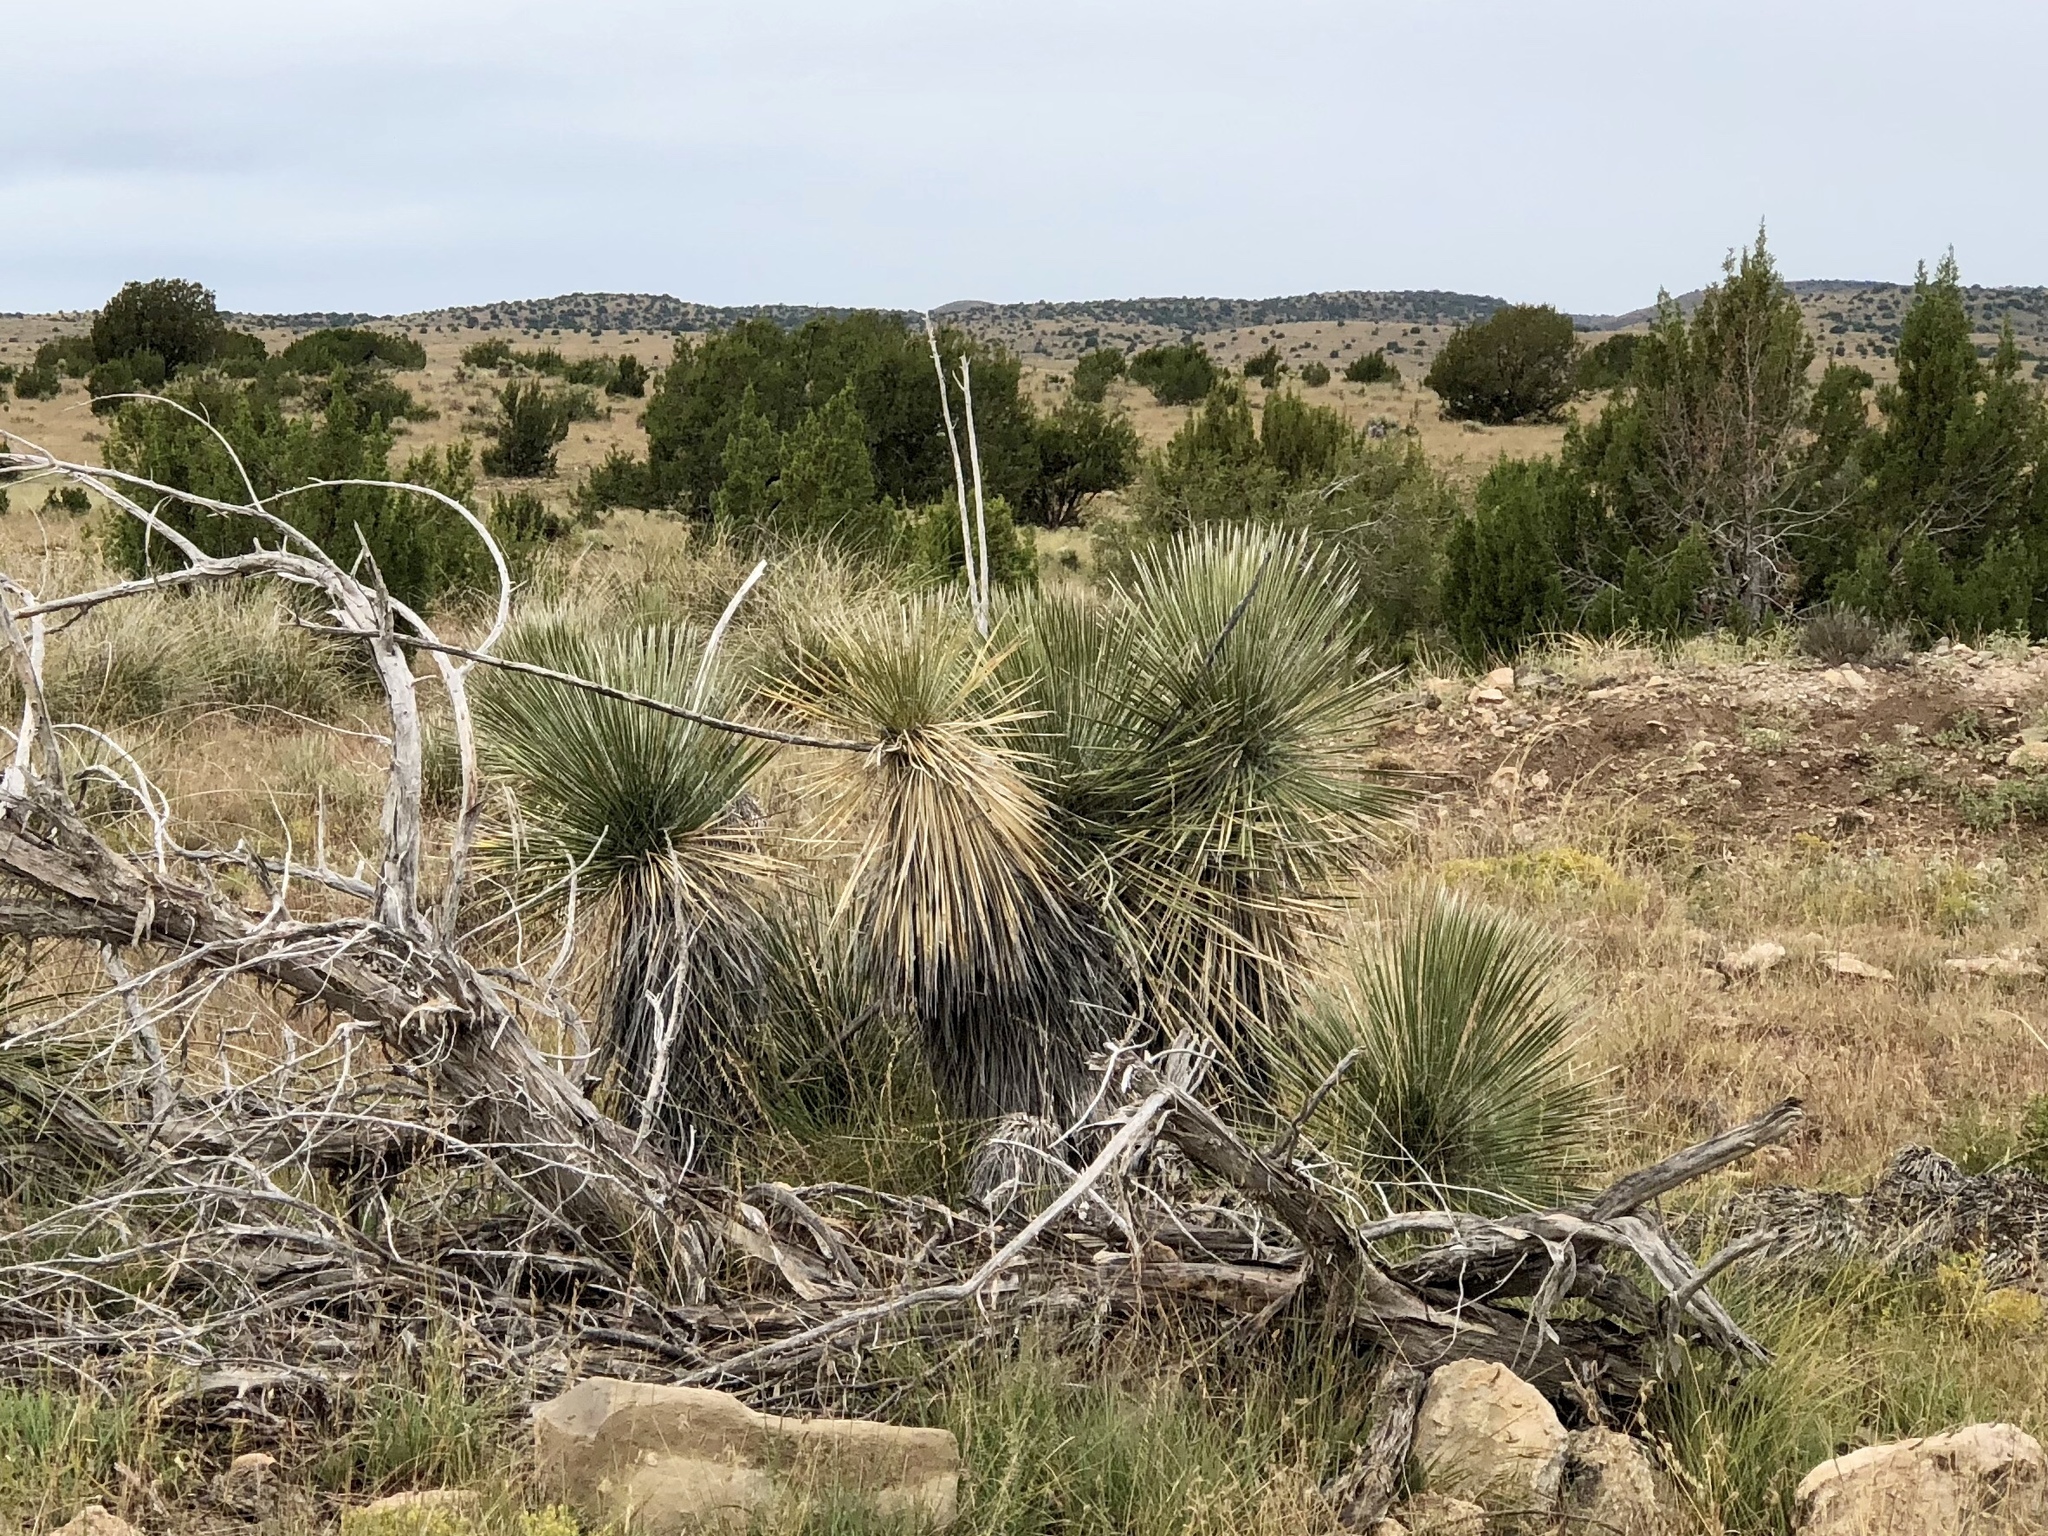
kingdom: Plantae
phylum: Tracheophyta
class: Liliopsida
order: Asparagales
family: Asparagaceae
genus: Yucca
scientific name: Yucca elata
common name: Palmella
